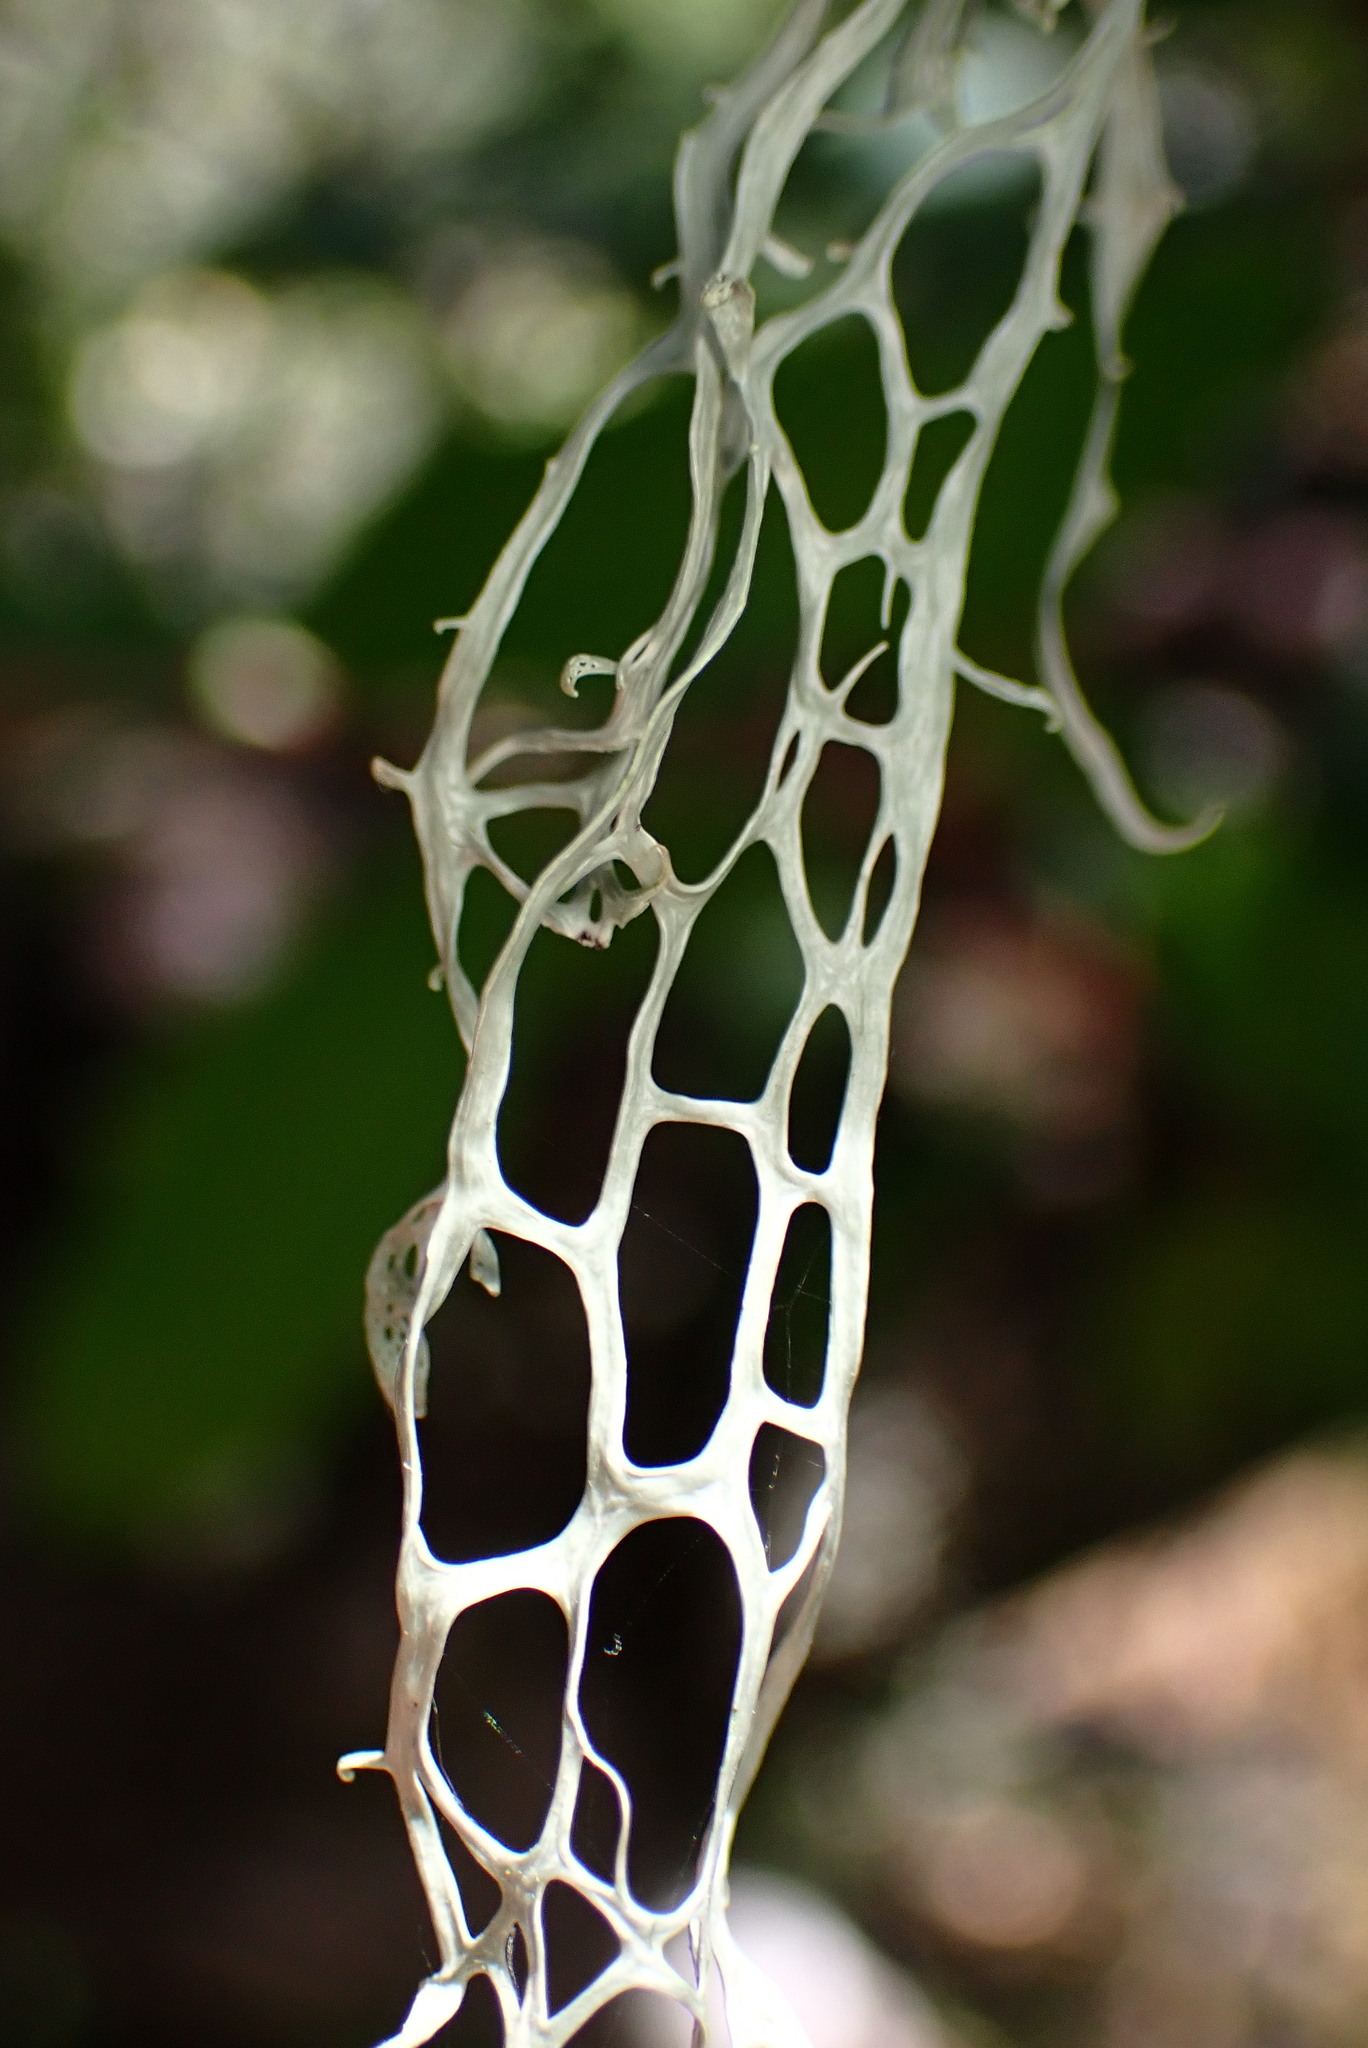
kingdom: Fungi
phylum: Ascomycota
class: Lecanoromycetes
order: Lecanorales
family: Ramalinaceae
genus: Ramalina
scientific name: Ramalina menziesii
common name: Lace lichen
